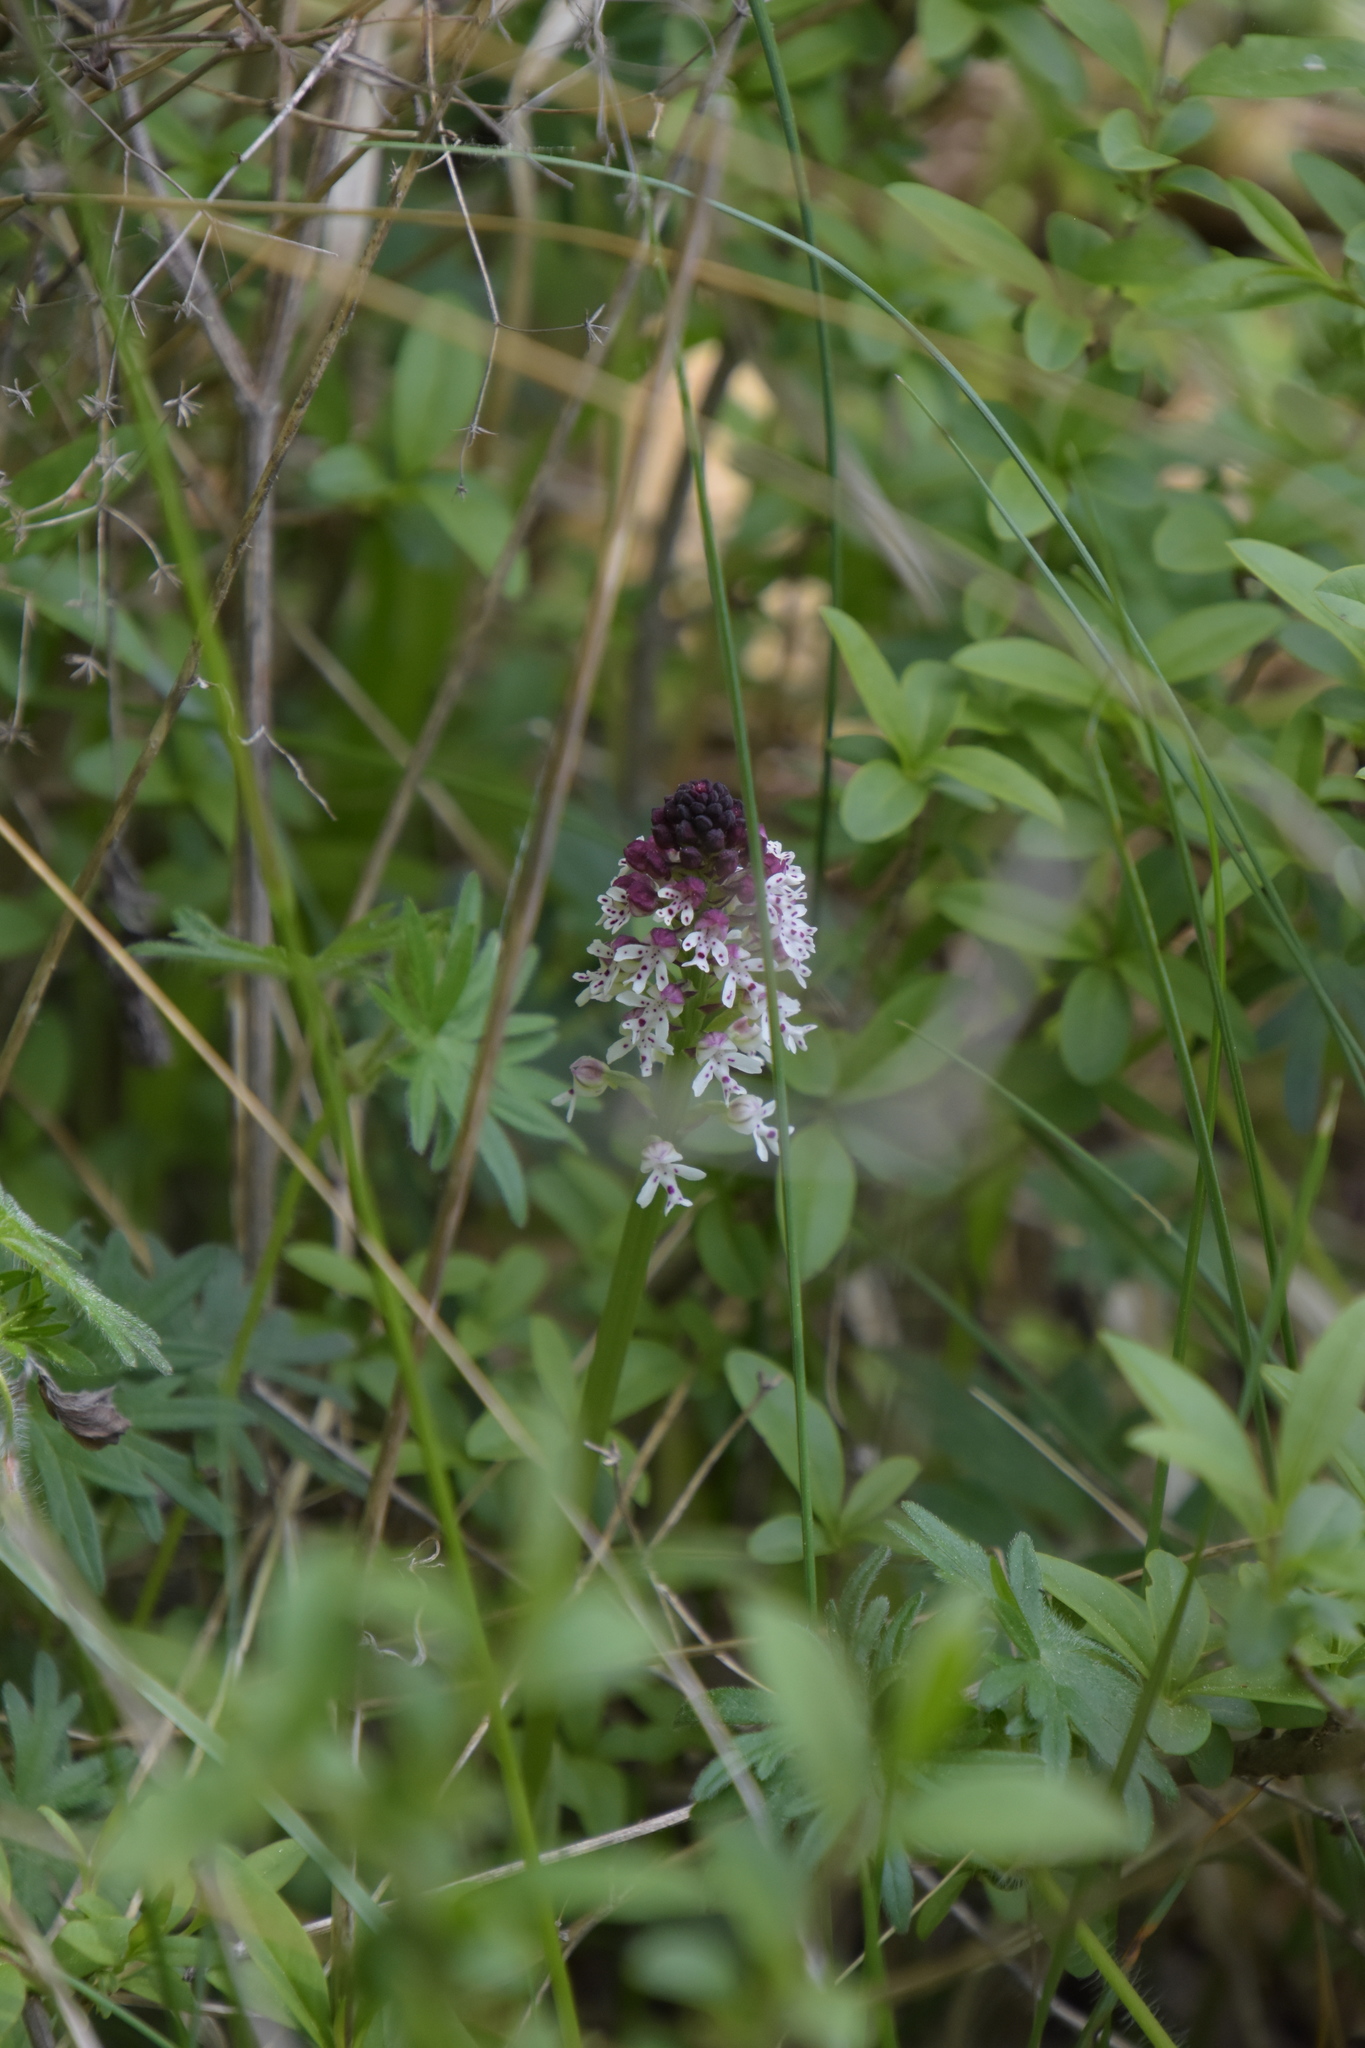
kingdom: Plantae
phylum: Tracheophyta
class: Liliopsida
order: Asparagales
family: Orchidaceae
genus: Neotinea
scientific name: Neotinea ustulata
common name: Burnt orchid
